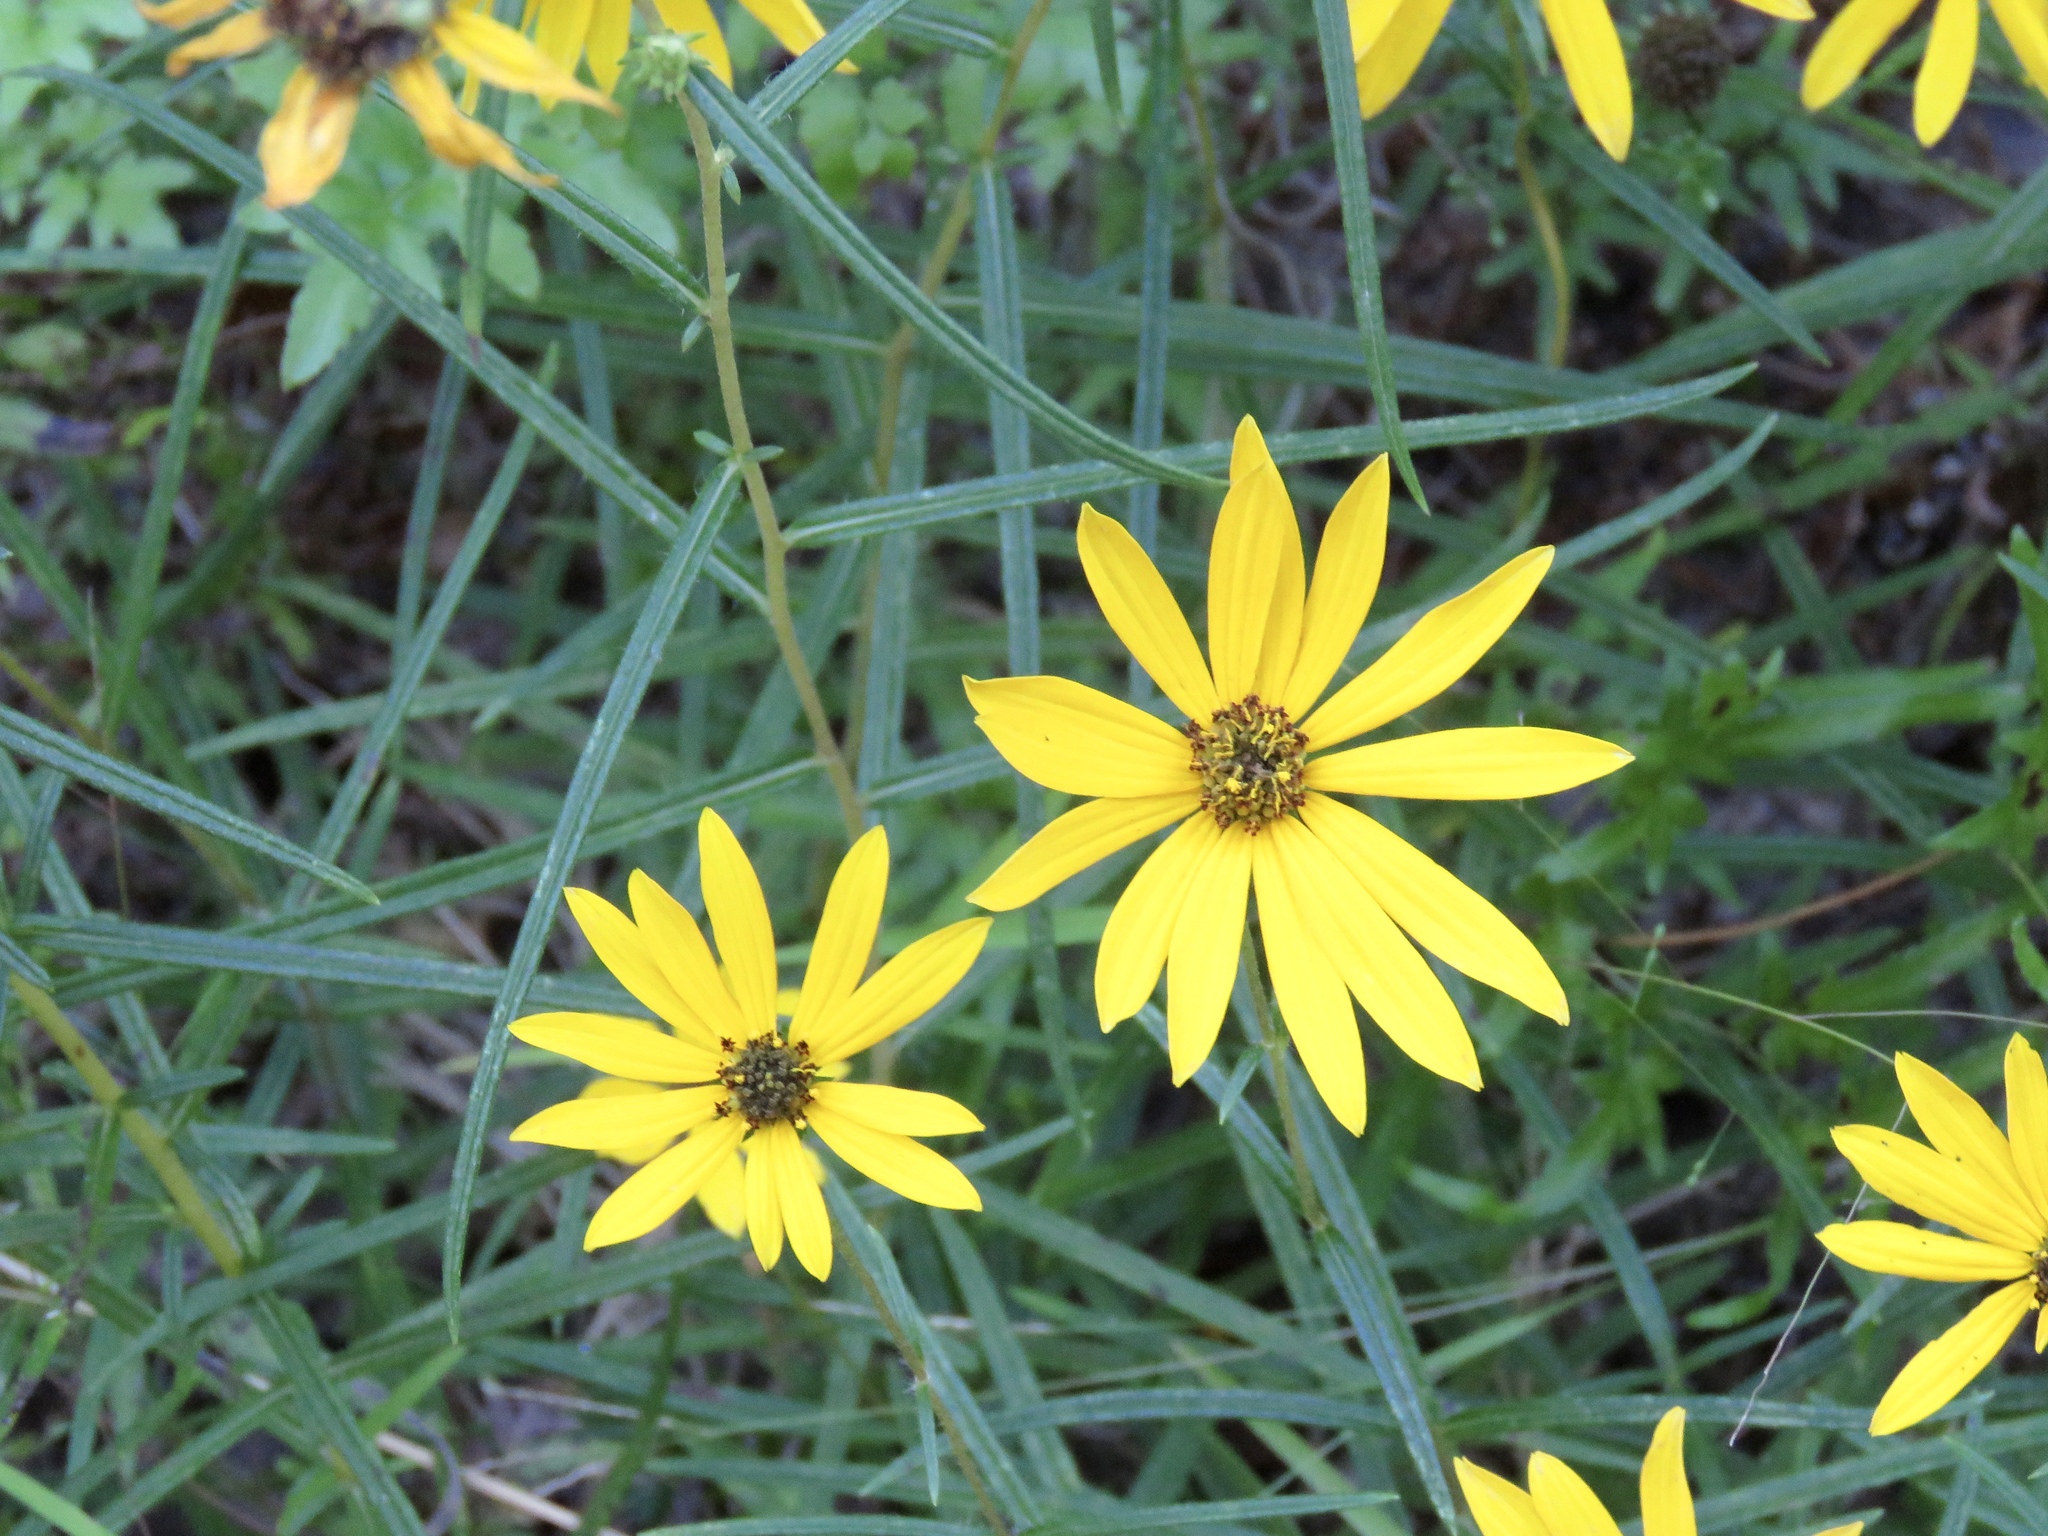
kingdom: Plantae
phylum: Tracheophyta
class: Magnoliopsida
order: Asterales
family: Asteraceae
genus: Helianthus
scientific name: Helianthus angustifolius
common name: Swamp sunflower
